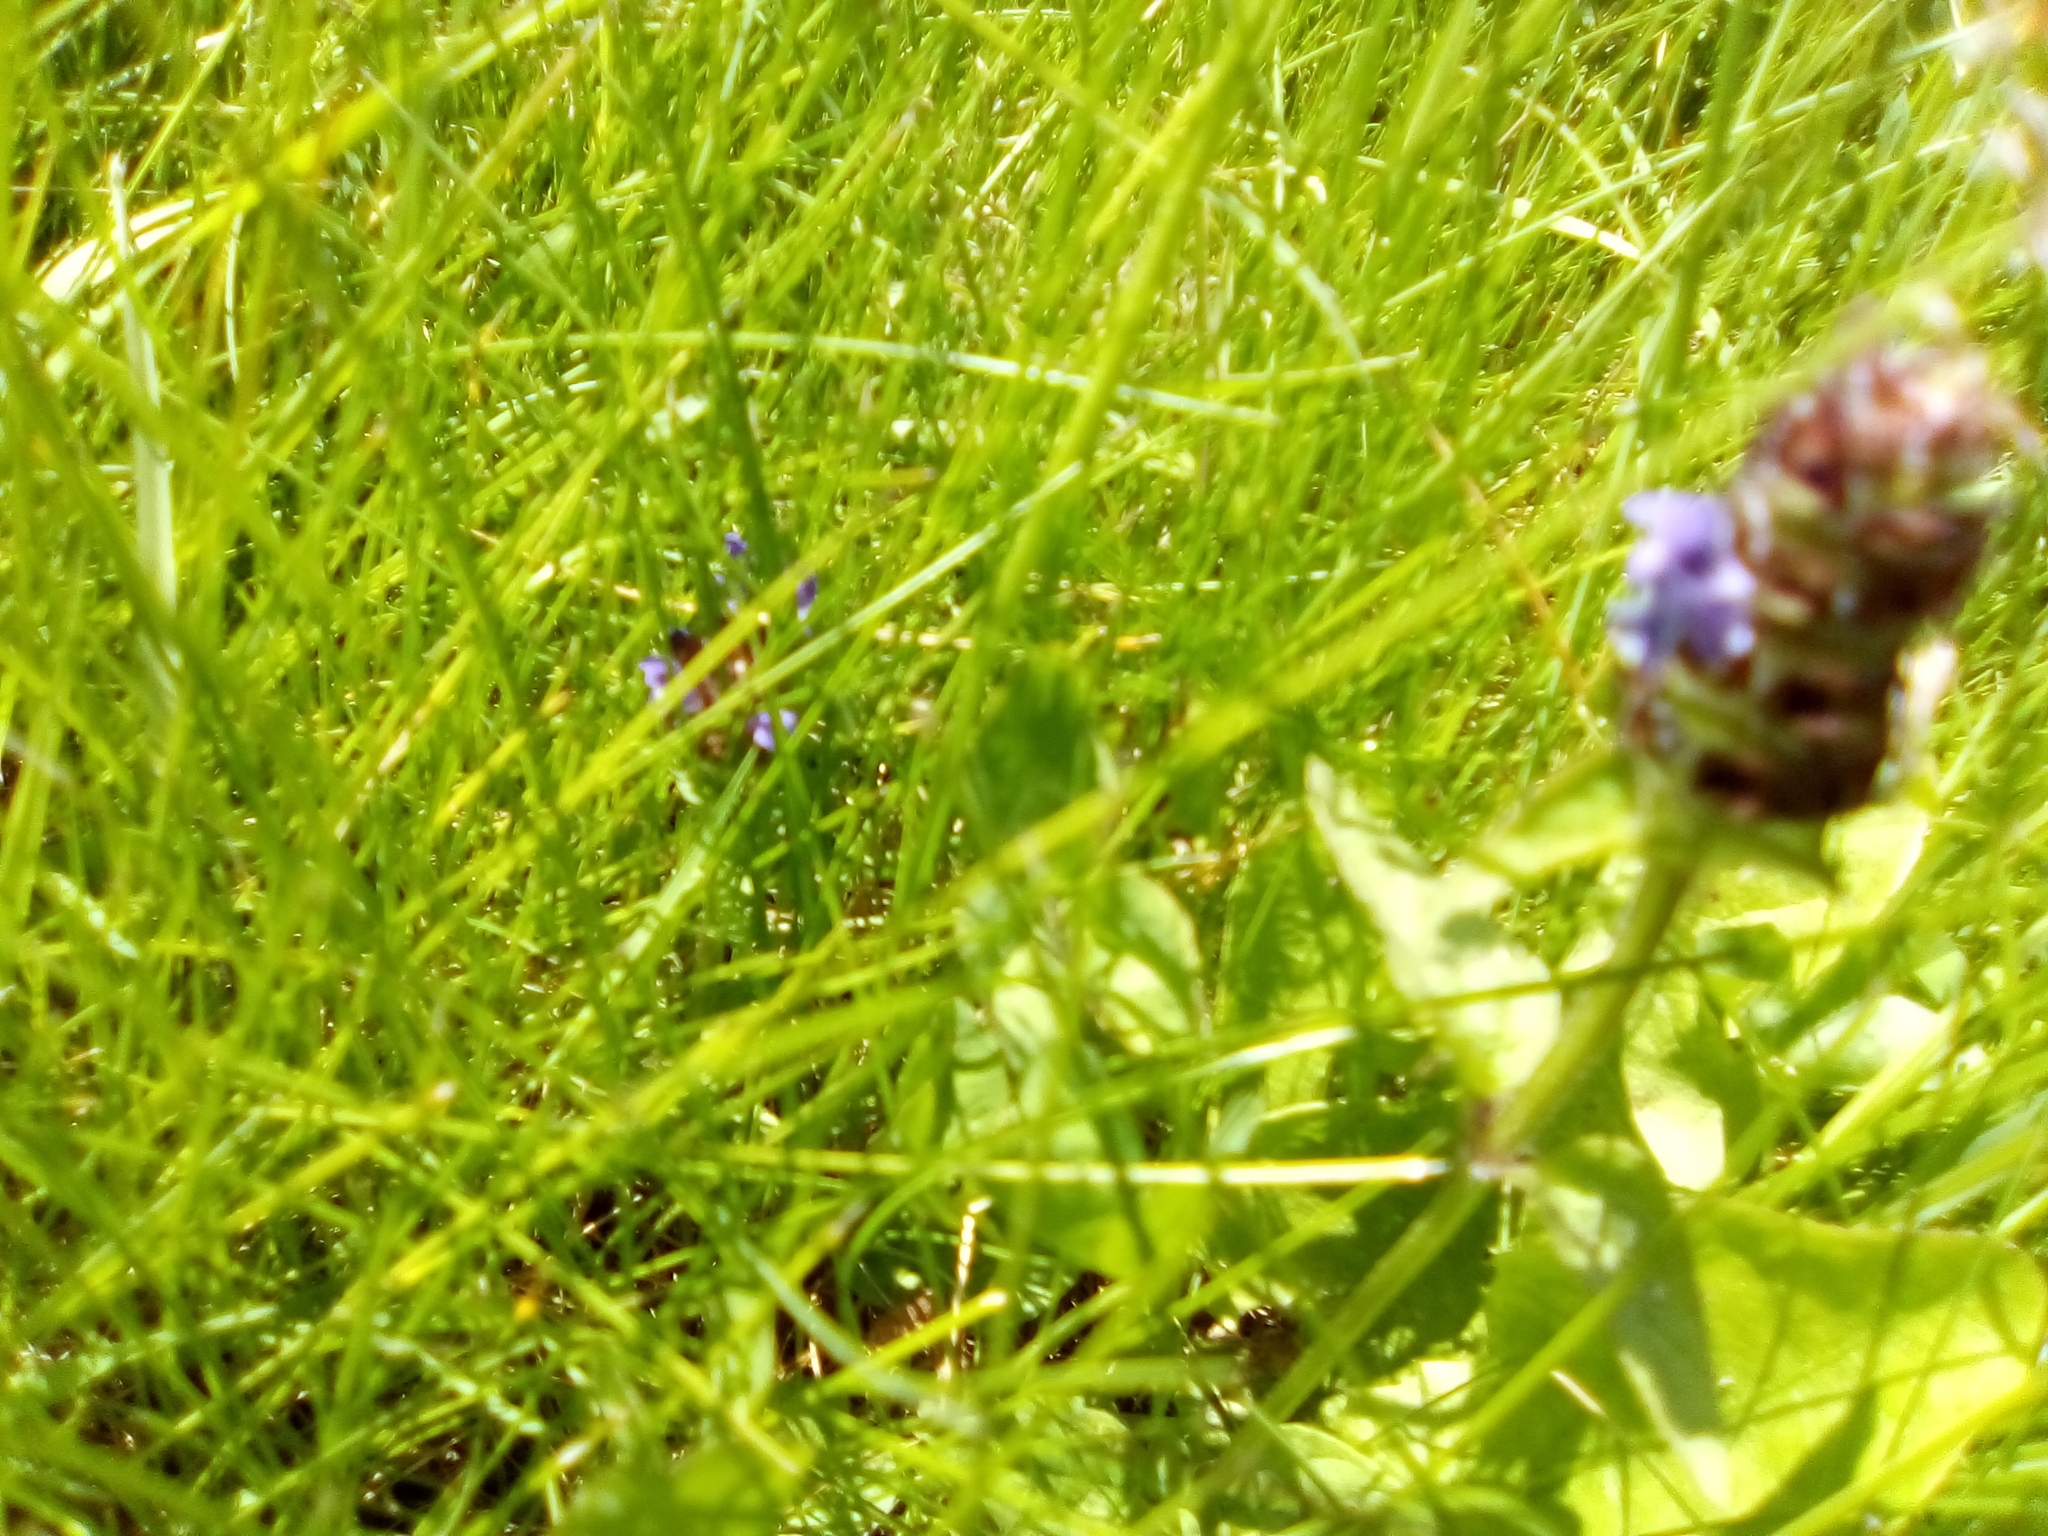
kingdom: Plantae
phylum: Tracheophyta
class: Magnoliopsida
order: Lamiales
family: Lamiaceae
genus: Prunella
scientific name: Prunella vulgaris
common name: Heal-all
